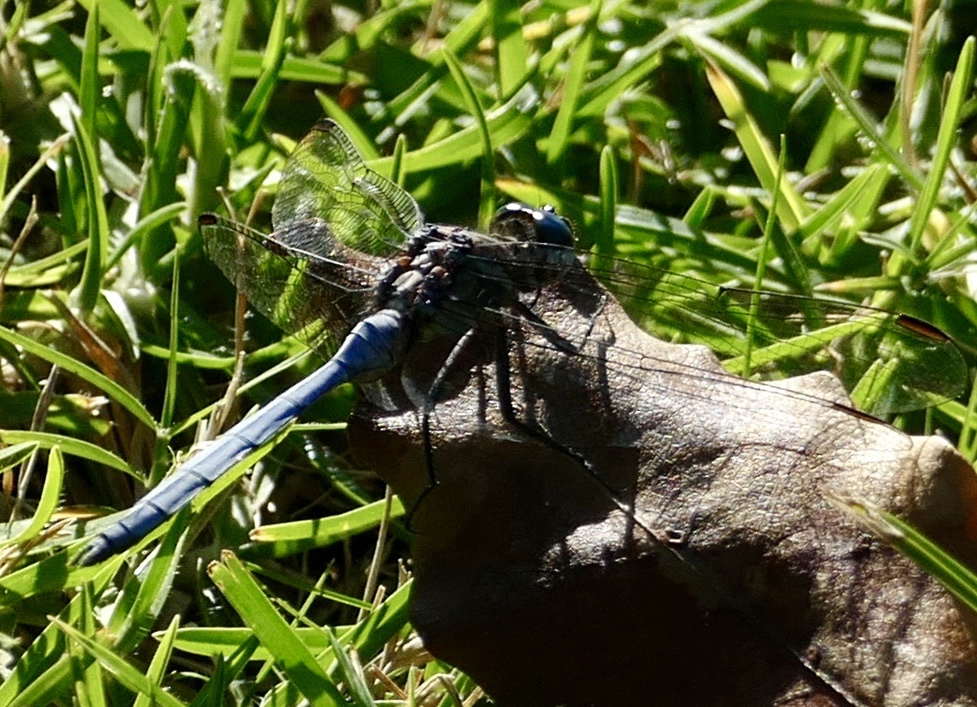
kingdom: Animalia
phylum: Arthropoda
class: Insecta
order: Odonata
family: Libellulidae
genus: Orthetrum
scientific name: Orthetrum julia
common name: Julia skimmer
